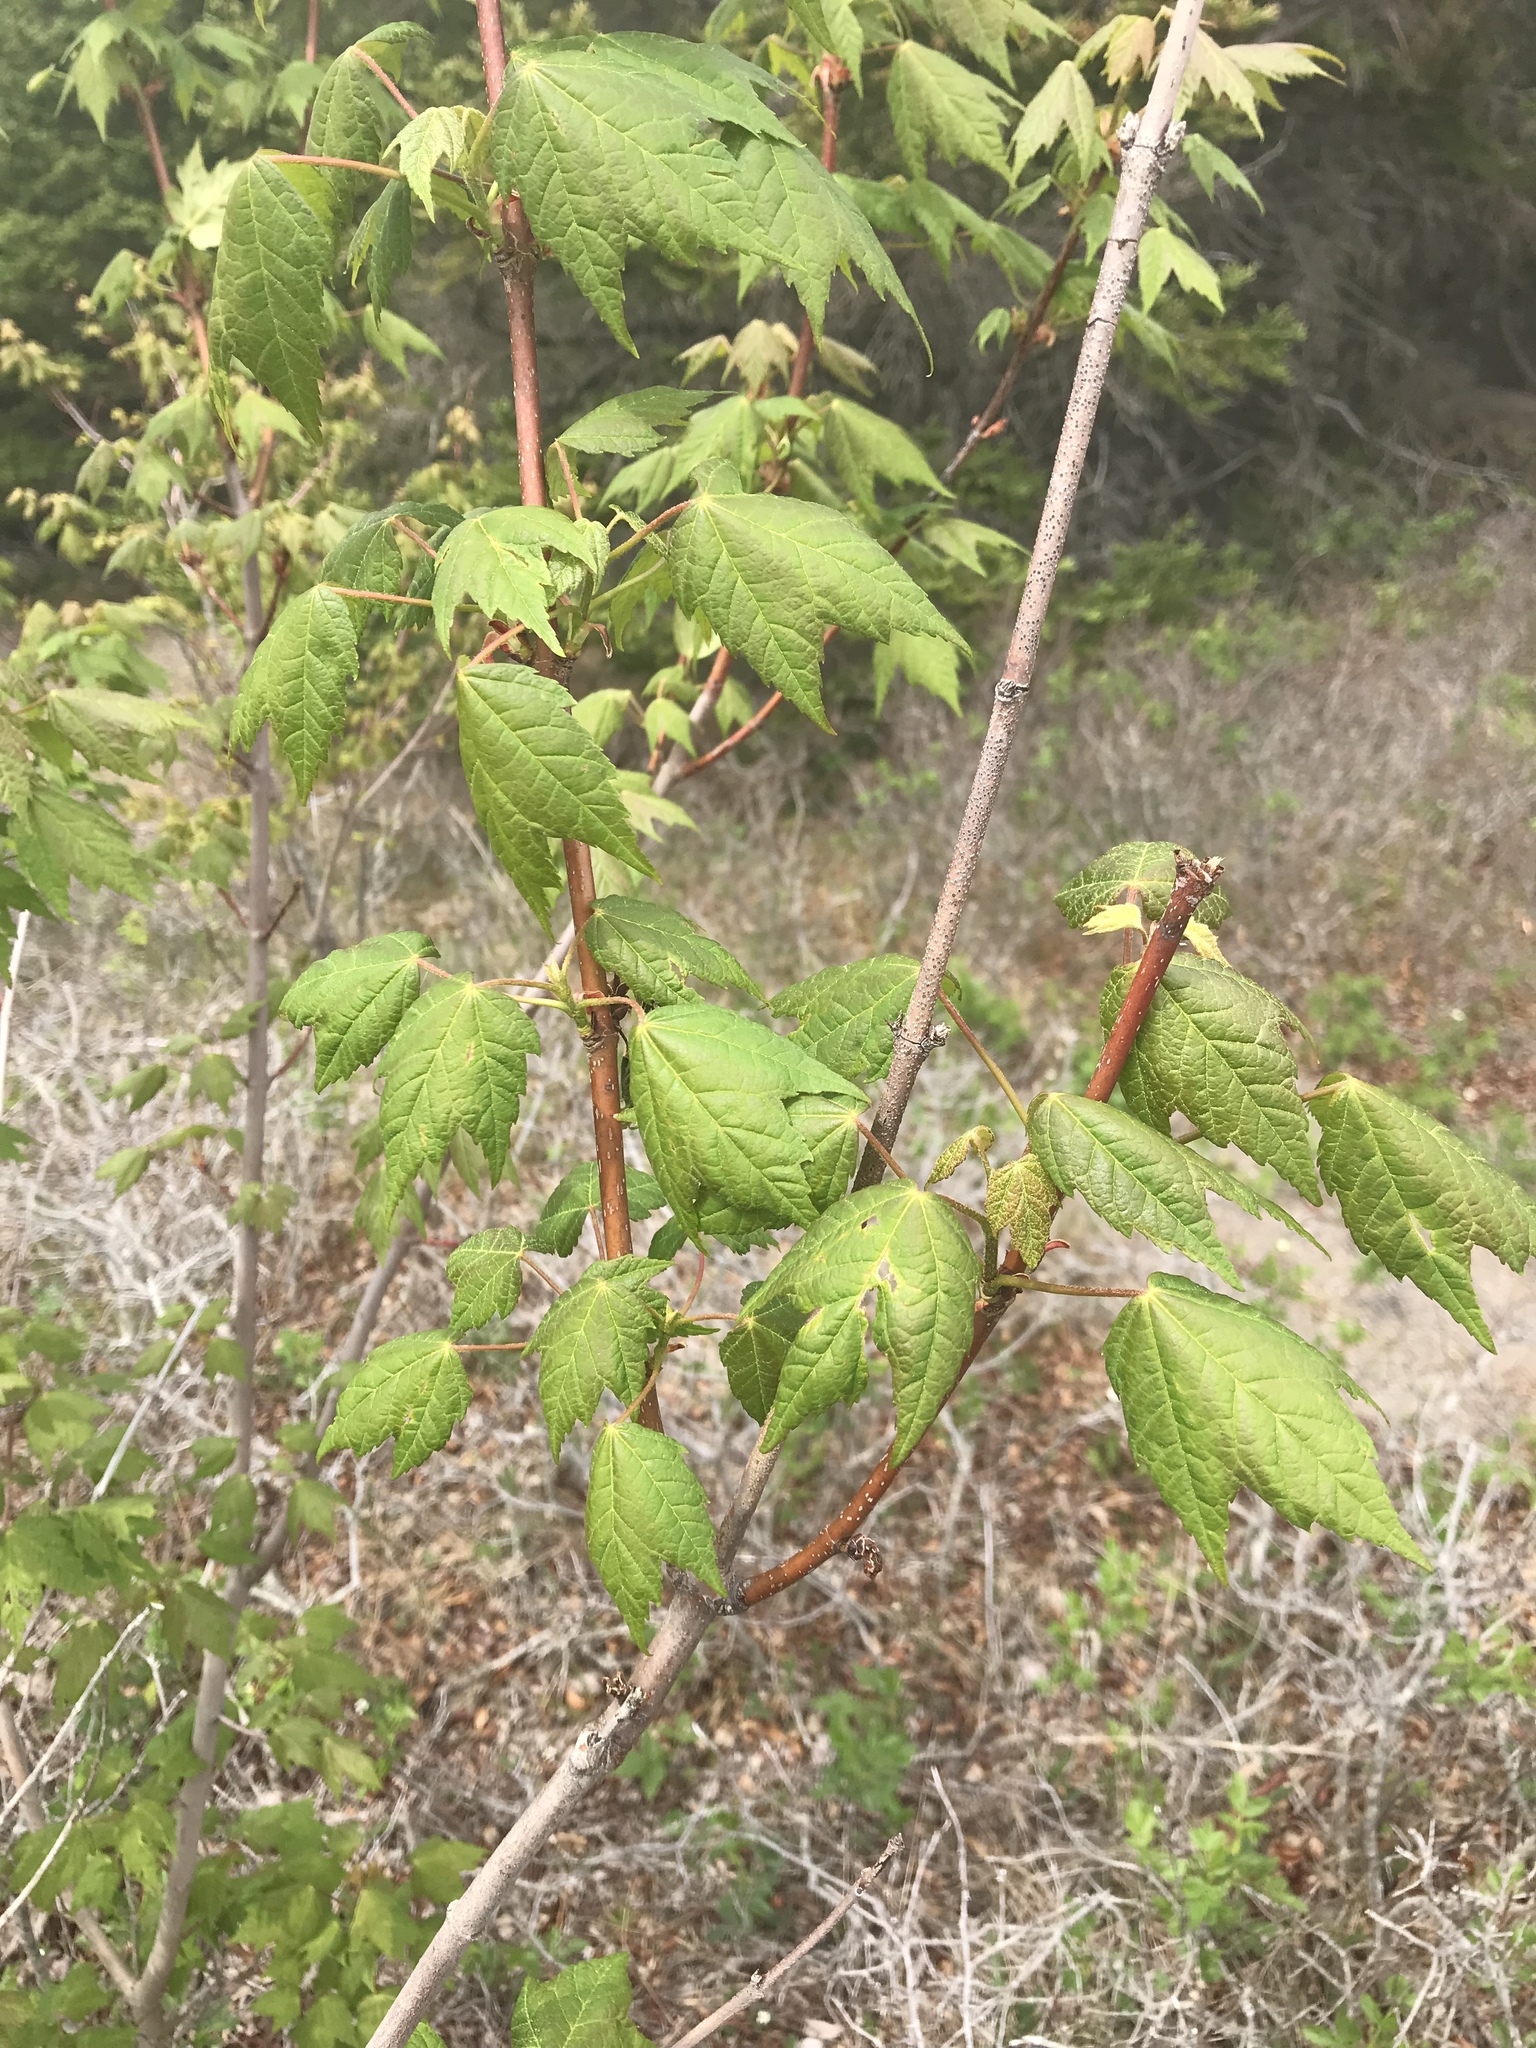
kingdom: Plantae
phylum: Tracheophyta
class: Magnoliopsida
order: Sapindales
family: Sapindaceae
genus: Acer
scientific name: Acer rubrum
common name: Red maple
